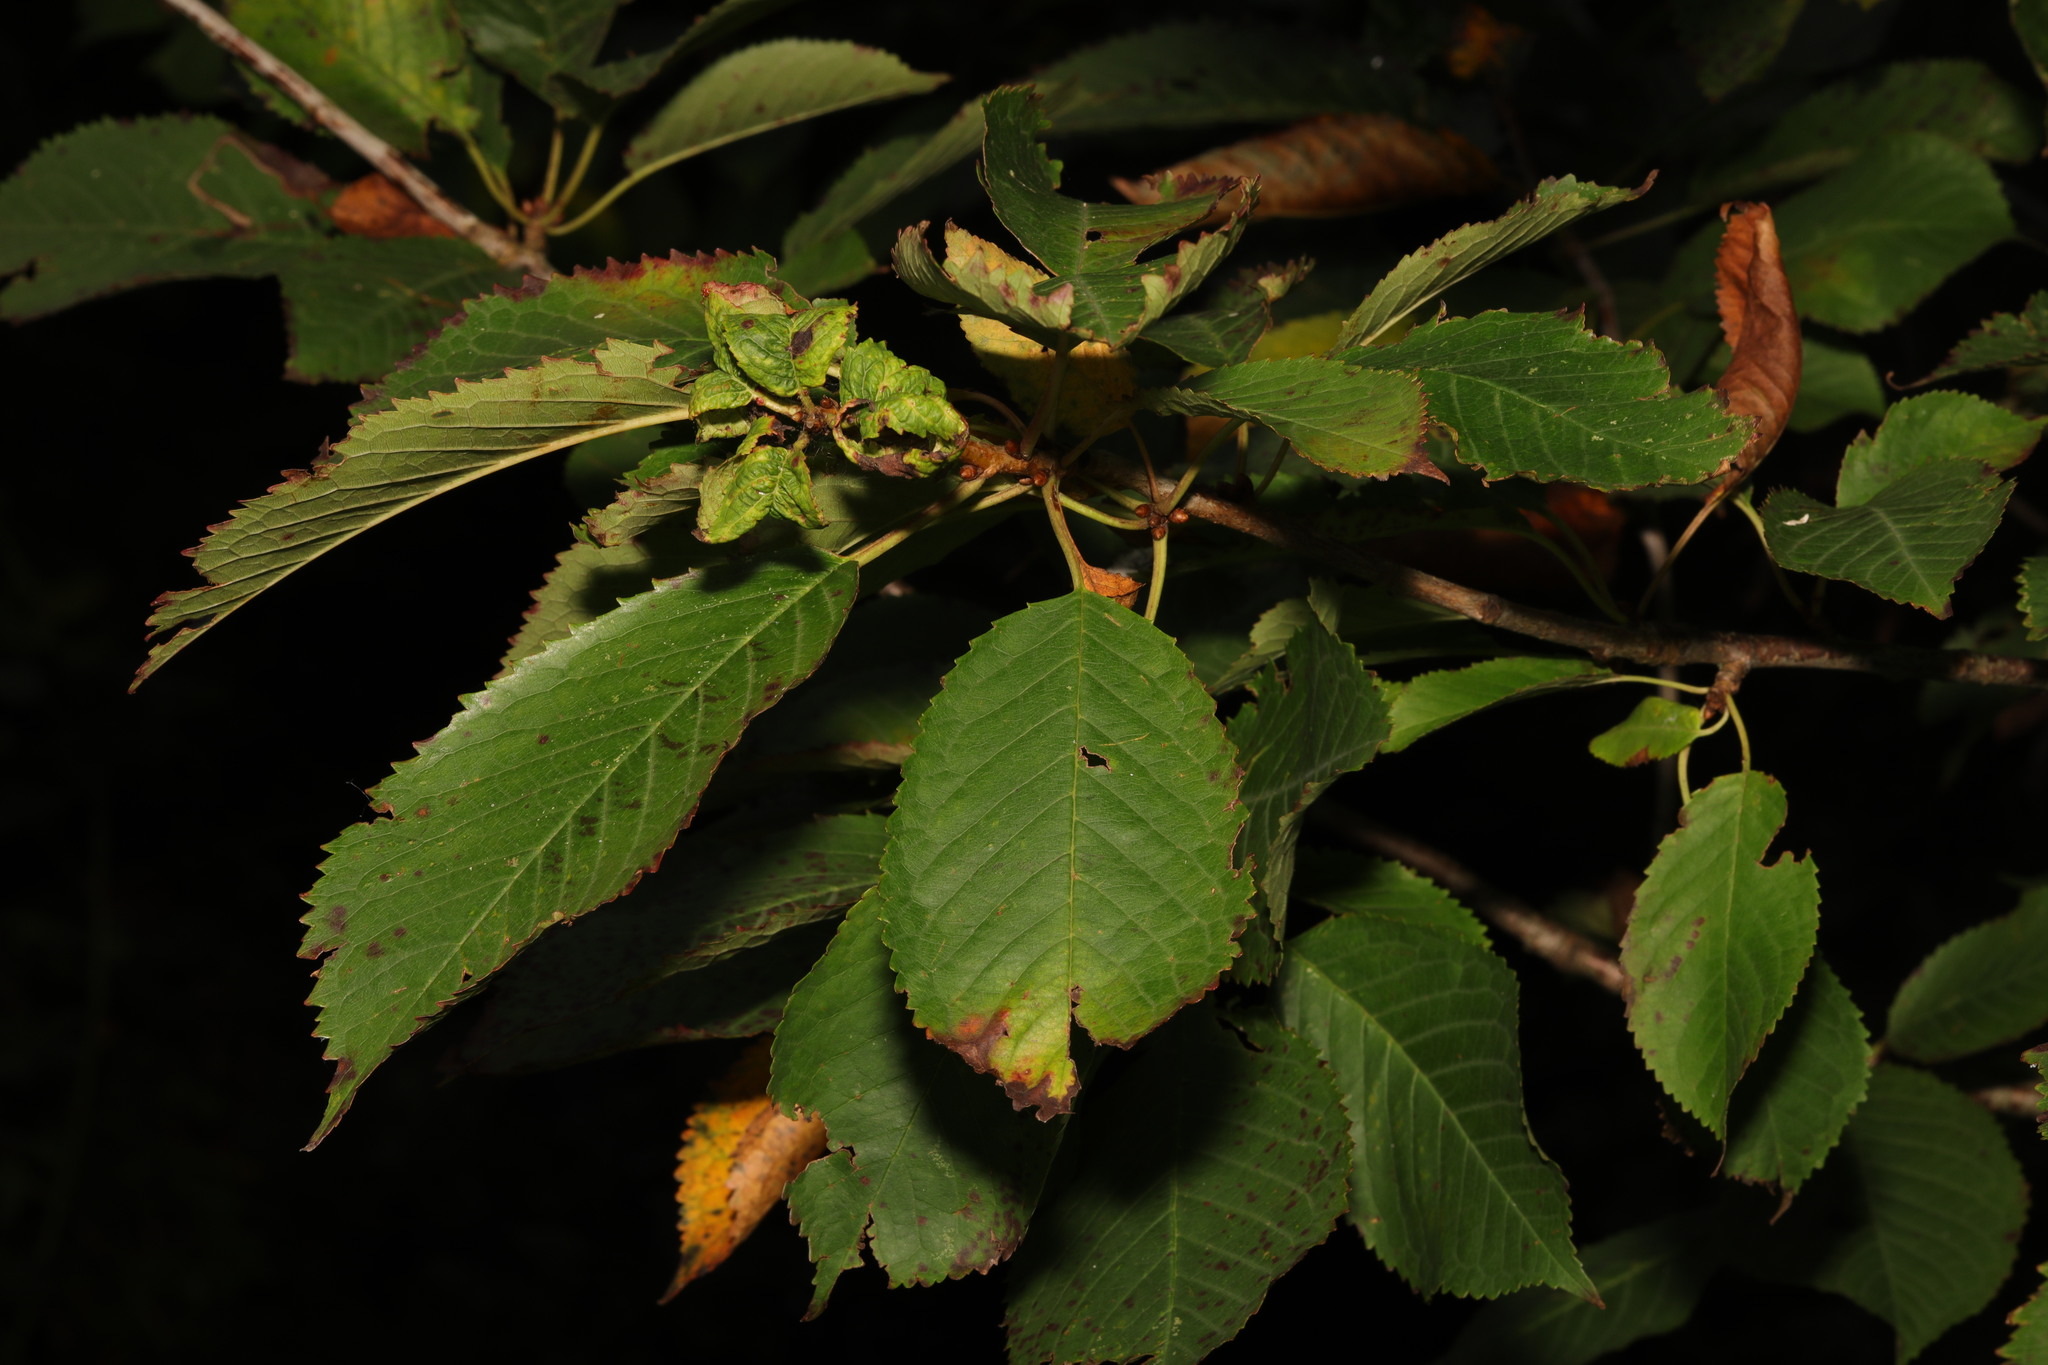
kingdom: Plantae
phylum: Tracheophyta
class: Magnoliopsida
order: Rosales
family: Rosaceae
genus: Prunus
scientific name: Prunus avium
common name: Sweet cherry
